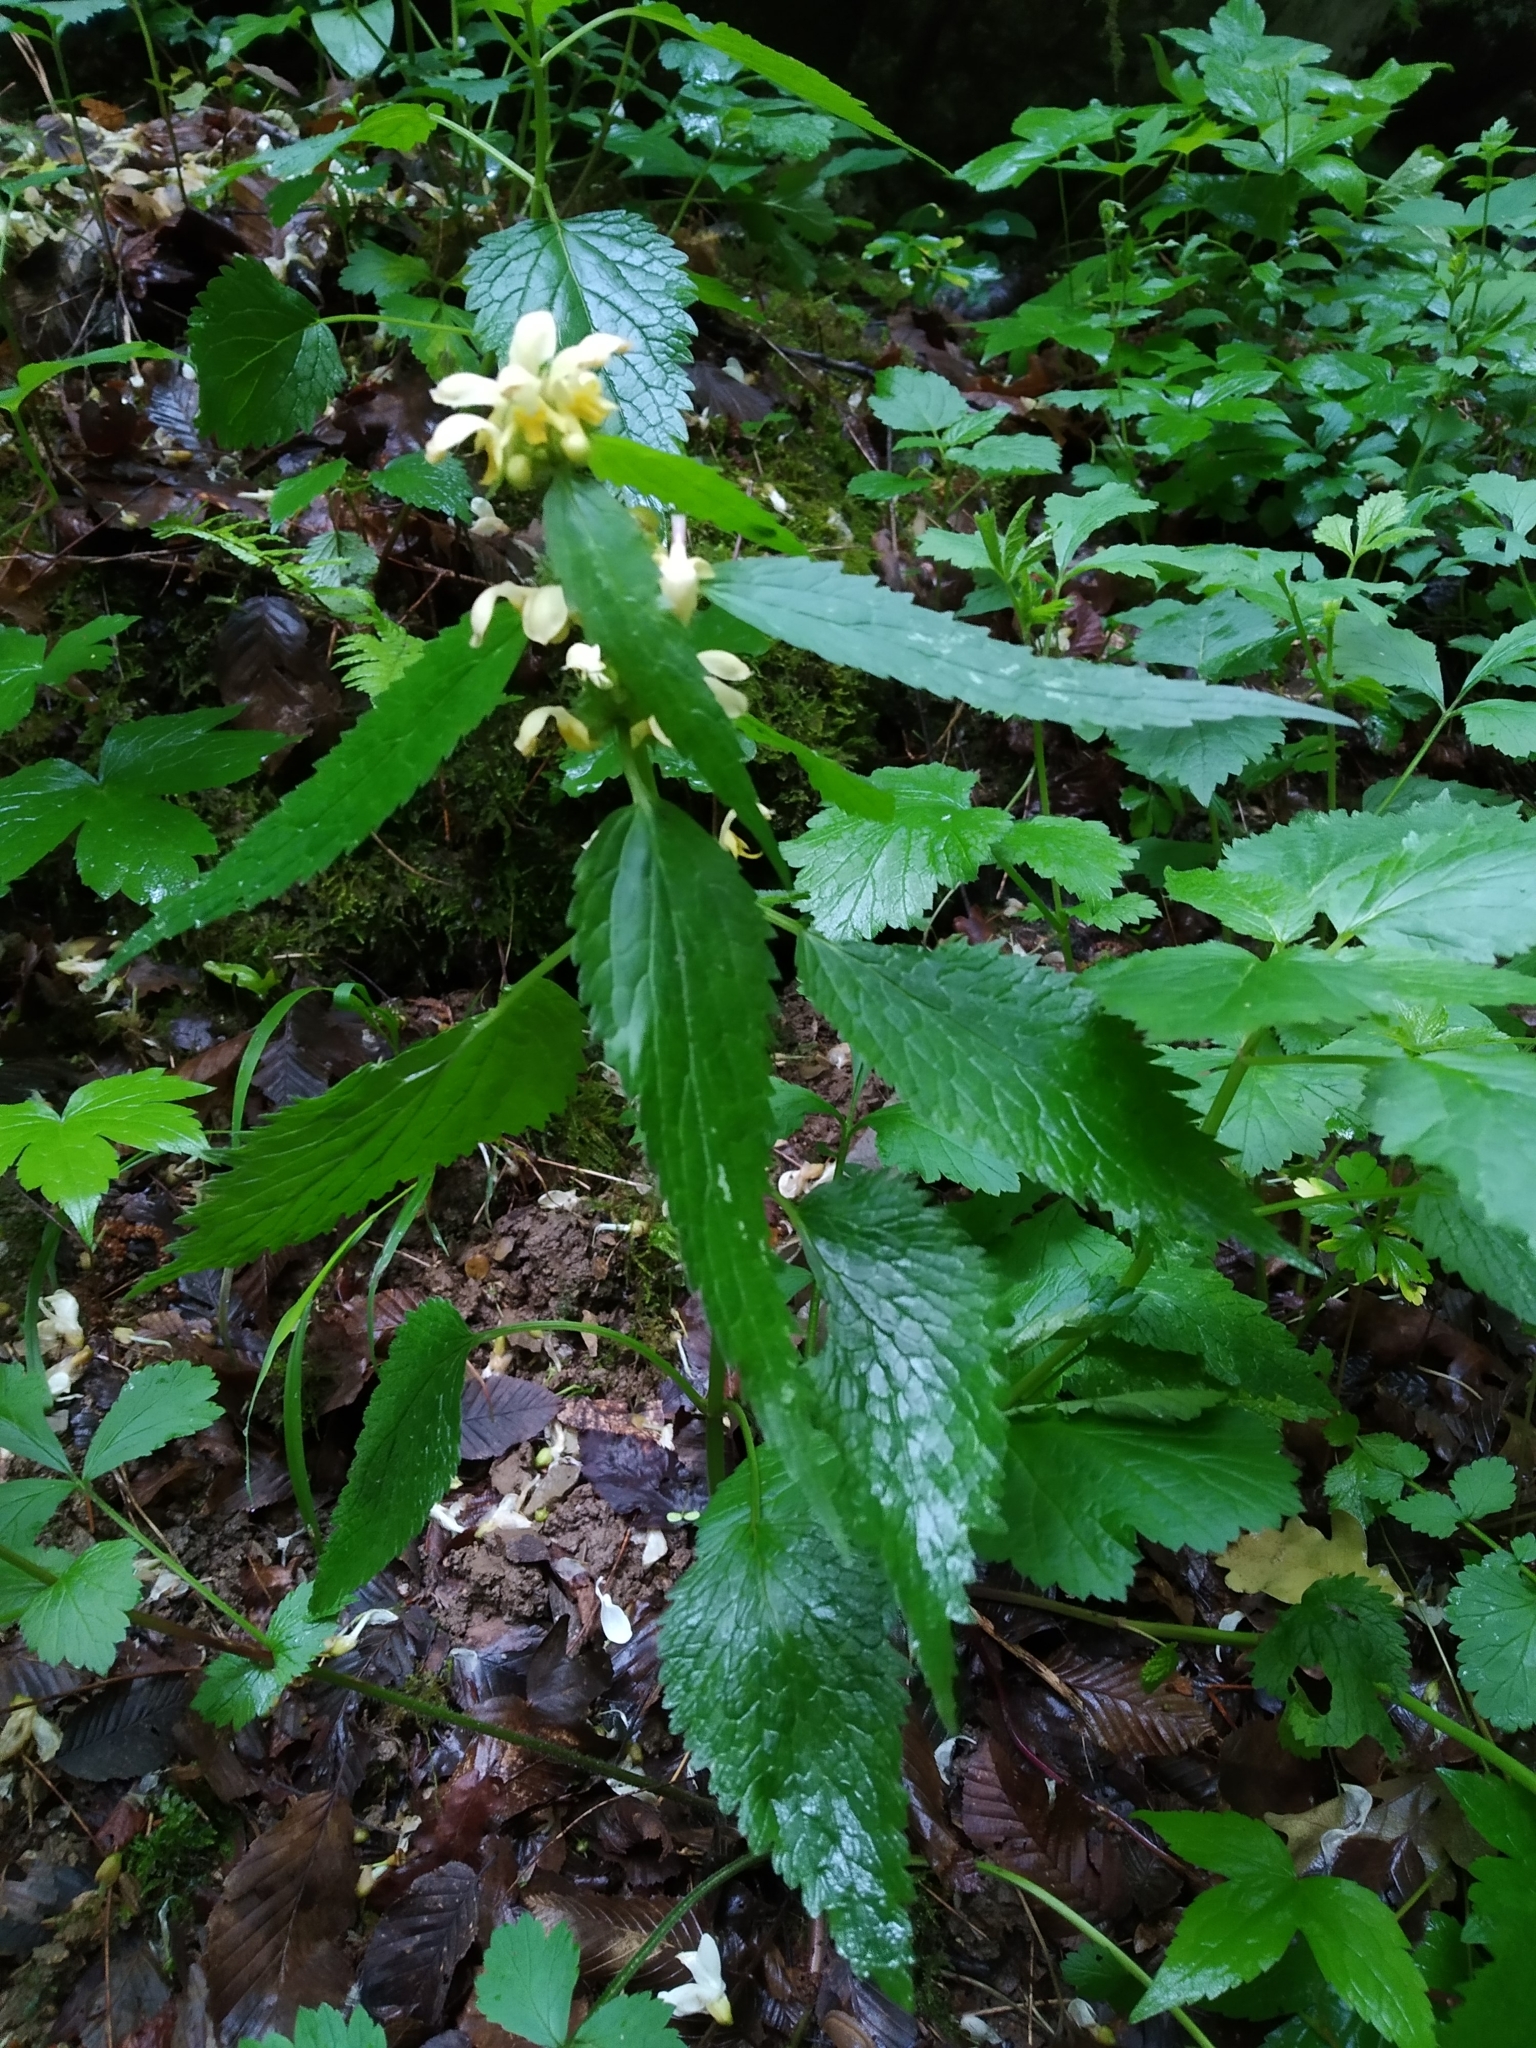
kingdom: Plantae
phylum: Tracheophyta
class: Magnoliopsida
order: Lamiales
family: Lamiaceae
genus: Lamium
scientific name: Lamium galeobdolon
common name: Yellow archangel
